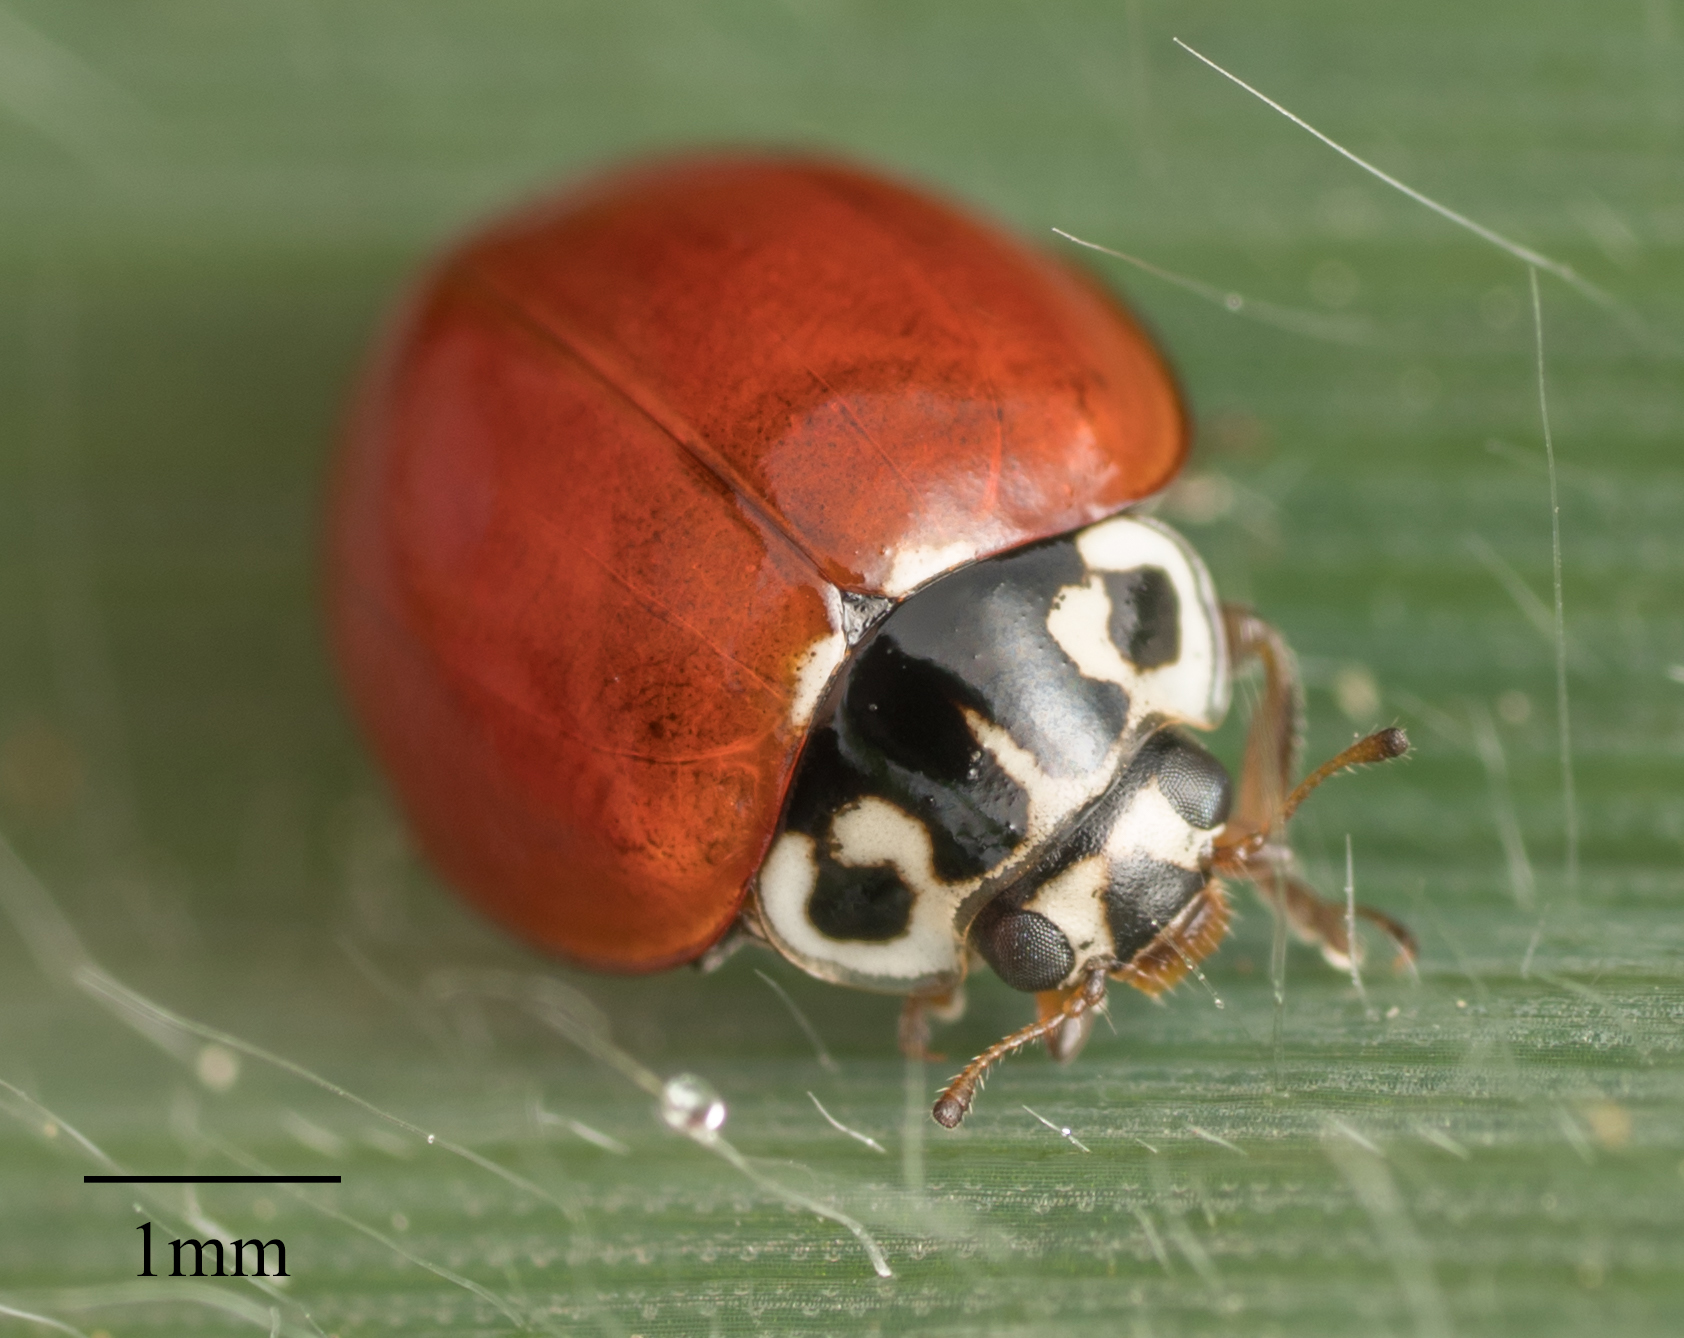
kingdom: Animalia
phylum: Arthropoda
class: Insecta
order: Coleoptera
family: Coccinellidae
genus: Cycloneda
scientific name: Cycloneda polita
